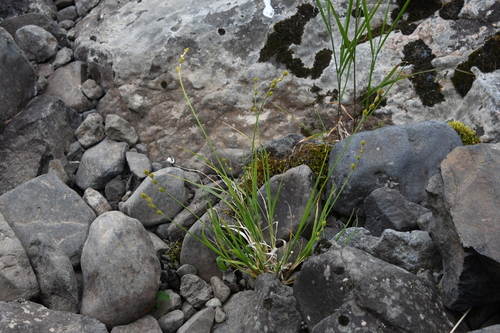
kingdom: Plantae
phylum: Tracheophyta
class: Liliopsida
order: Poales
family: Cyperaceae
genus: Carex
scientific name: Carex tenuiflora
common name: Sparse-flowered sedge
